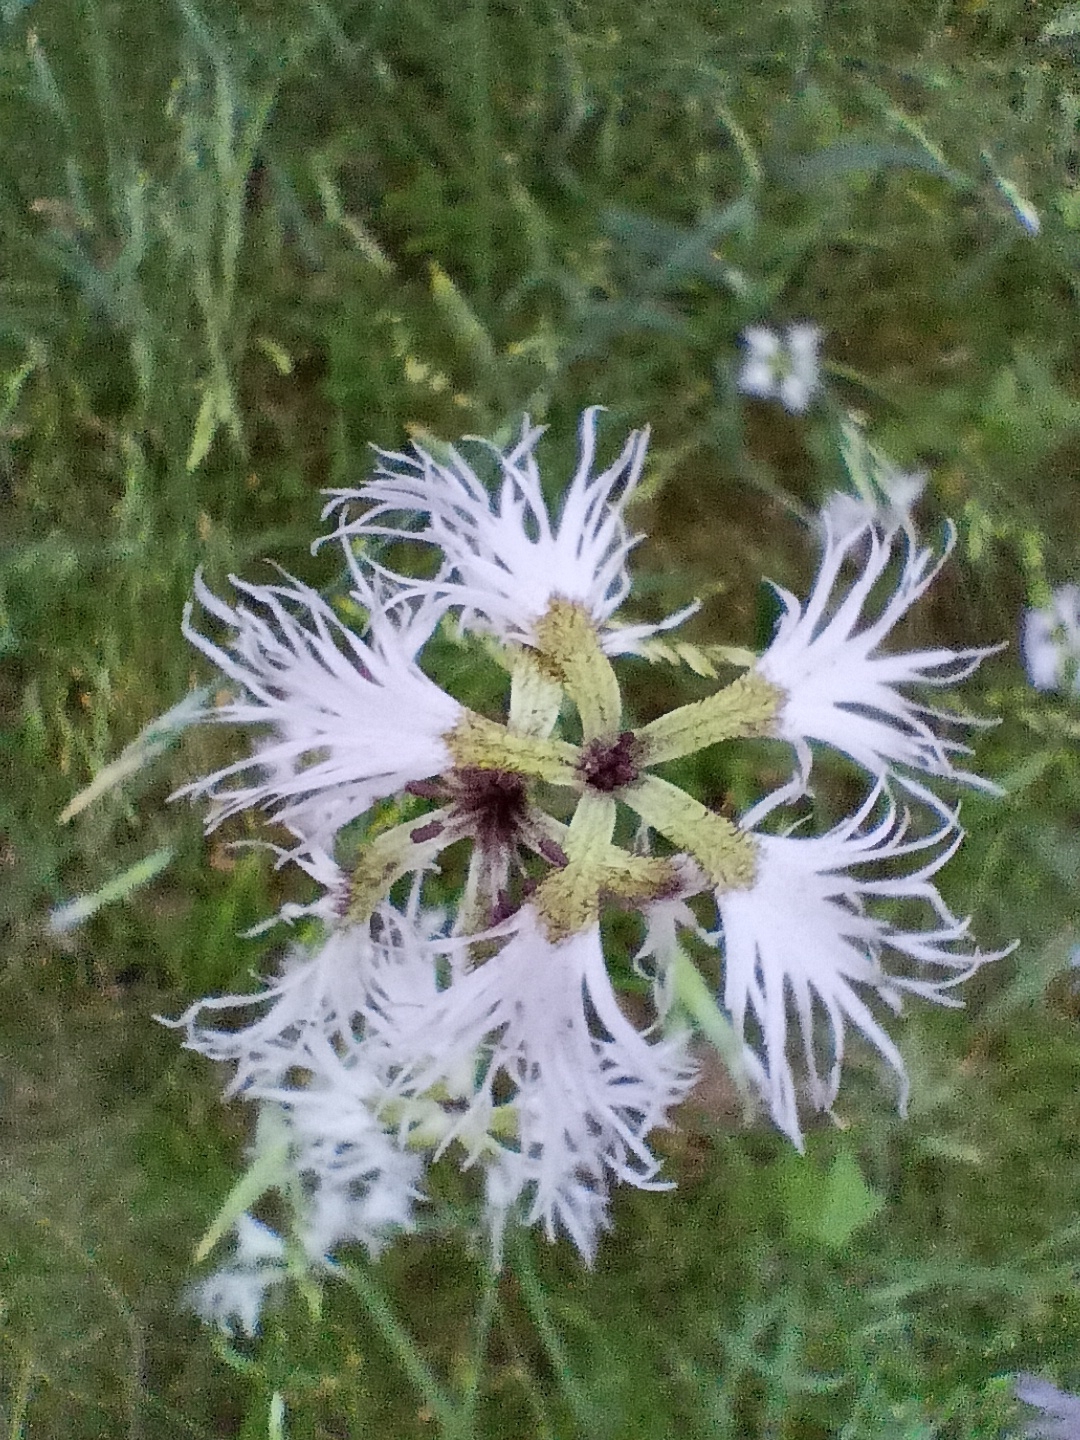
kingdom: Plantae
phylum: Tracheophyta
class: Magnoliopsida
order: Caryophyllales
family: Caryophyllaceae
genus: Dianthus
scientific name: Dianthus superbus
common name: Fringed pink
